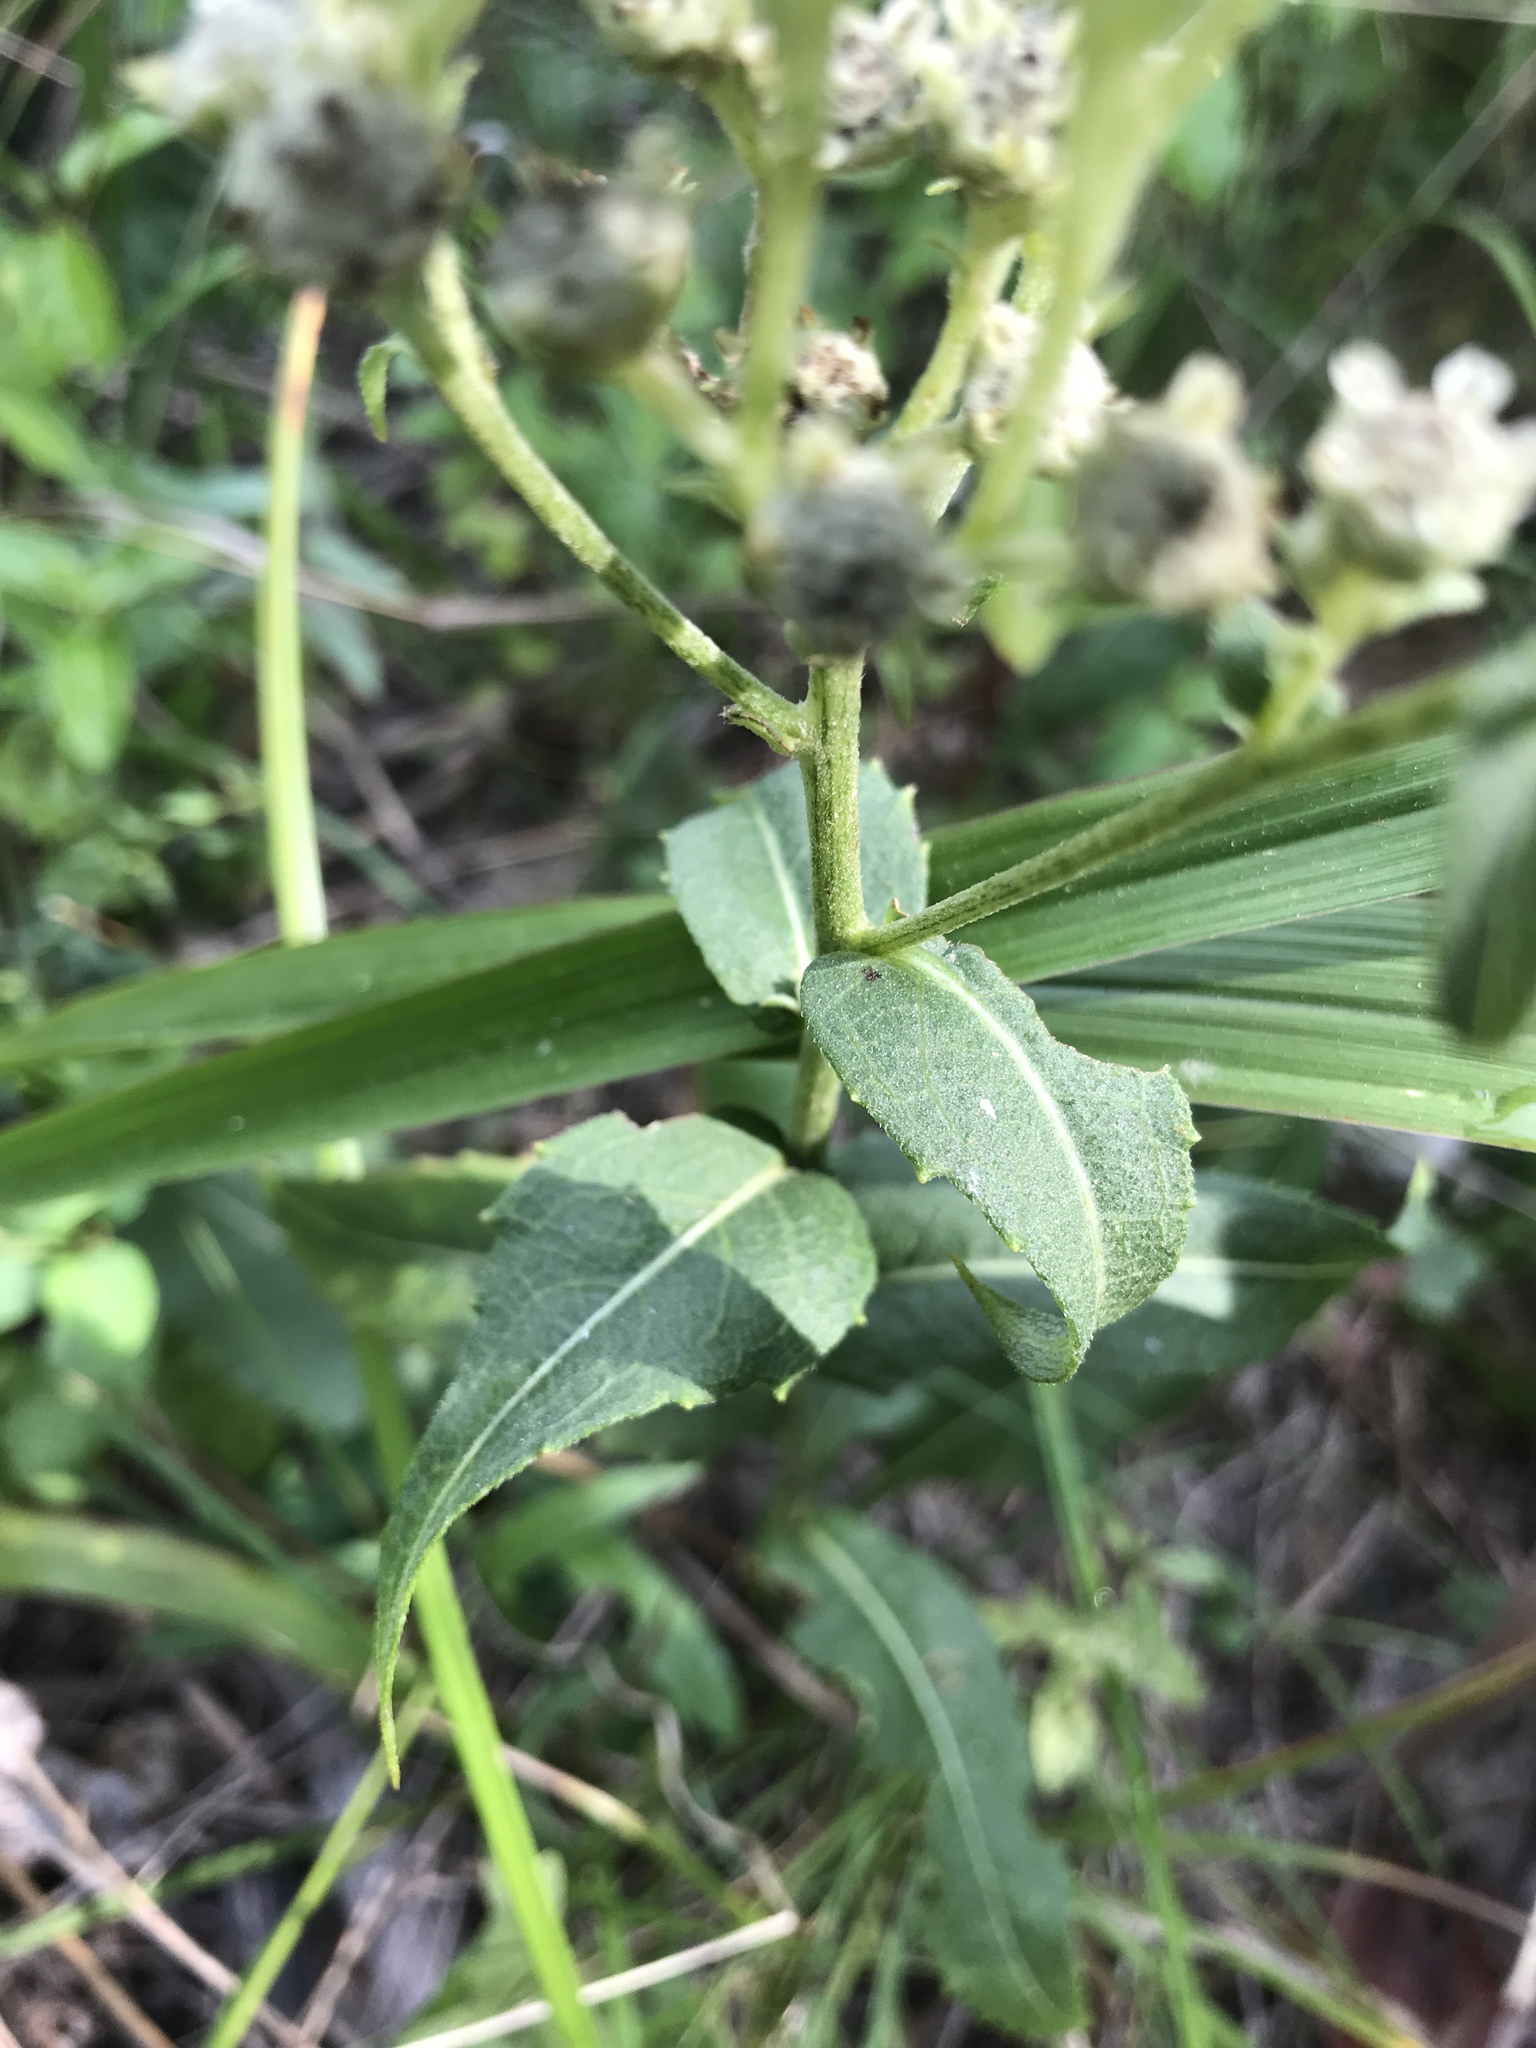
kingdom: Plantae
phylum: Tracheophyta
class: Magnoliopsida
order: Asterales
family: Asteraceae
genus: Parthenium
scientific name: Parthenium integrifolium
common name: American feverfew
